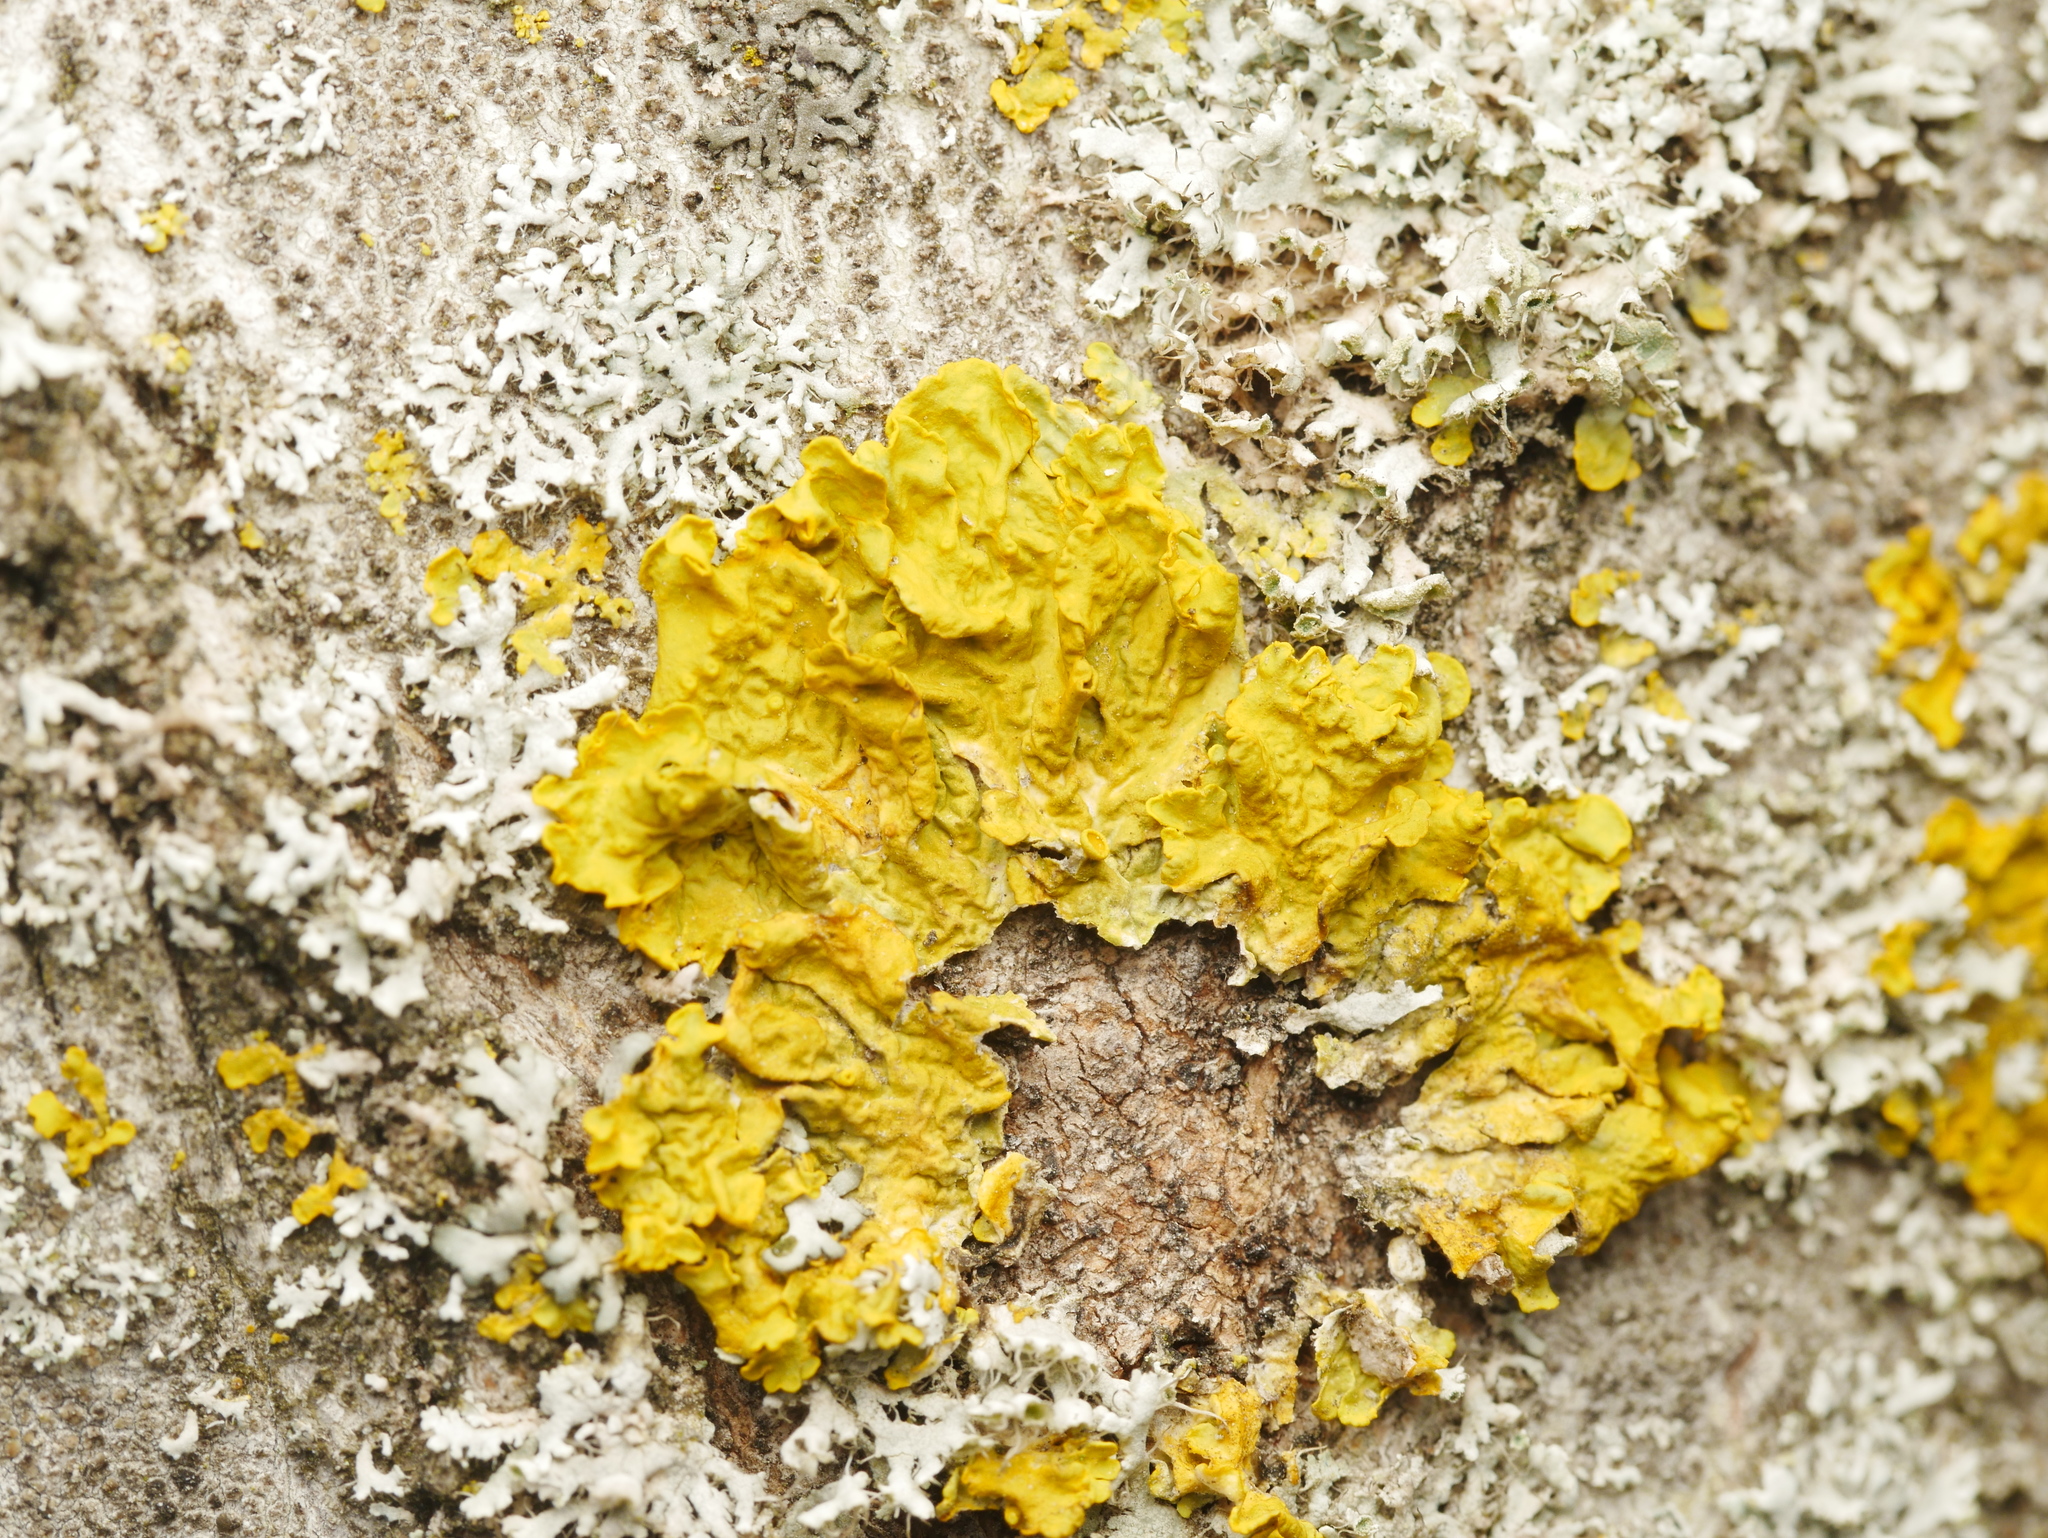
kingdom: Fungi
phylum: Ascomycota
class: Lecanoromycetes
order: Teloschistales
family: Teloschistaceae
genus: Xanthoria
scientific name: Xanthoria parietina
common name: Common orange lichen
